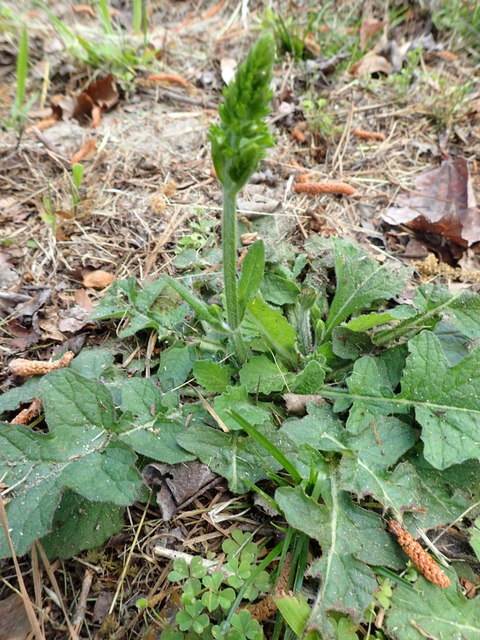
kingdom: Plantae
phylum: Tracheophyta
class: Magnoliopsida
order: Lamiales
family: Lamiaceae
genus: Salvia
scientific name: Salvia lyrata
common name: Cancerweed
